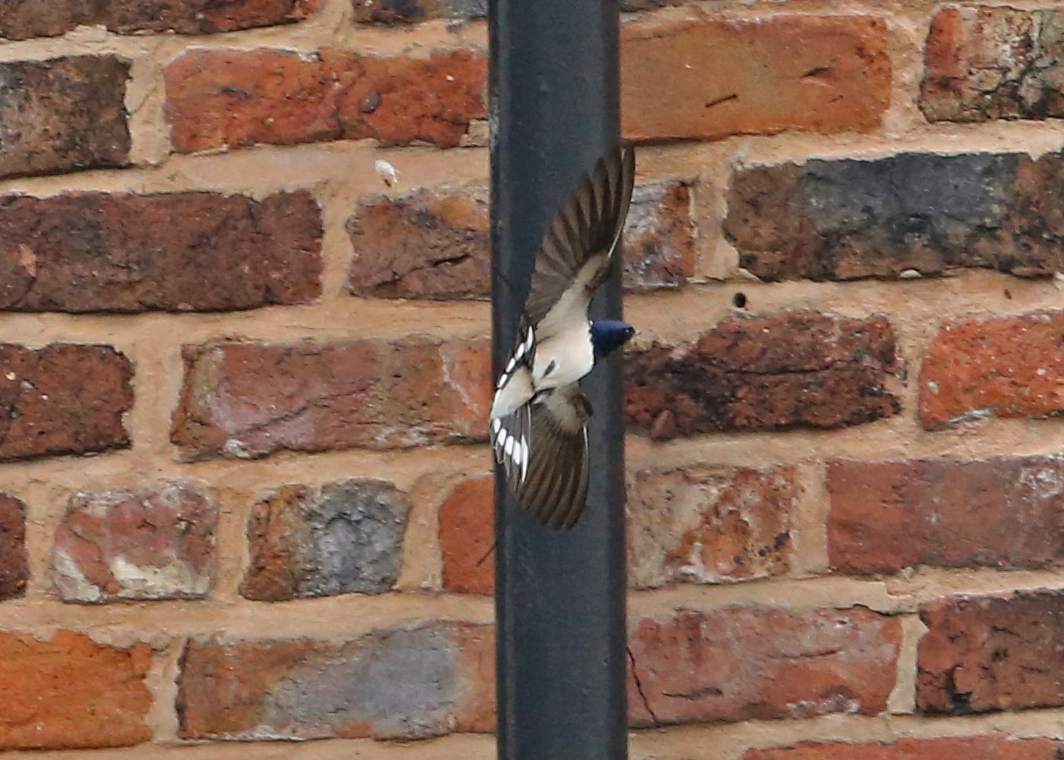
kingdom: Animalia
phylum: Chordata
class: Aves
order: Passeriformes
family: Hirundinidae
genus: Hirundo
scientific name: Hirundo rustica
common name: Barn swallow
